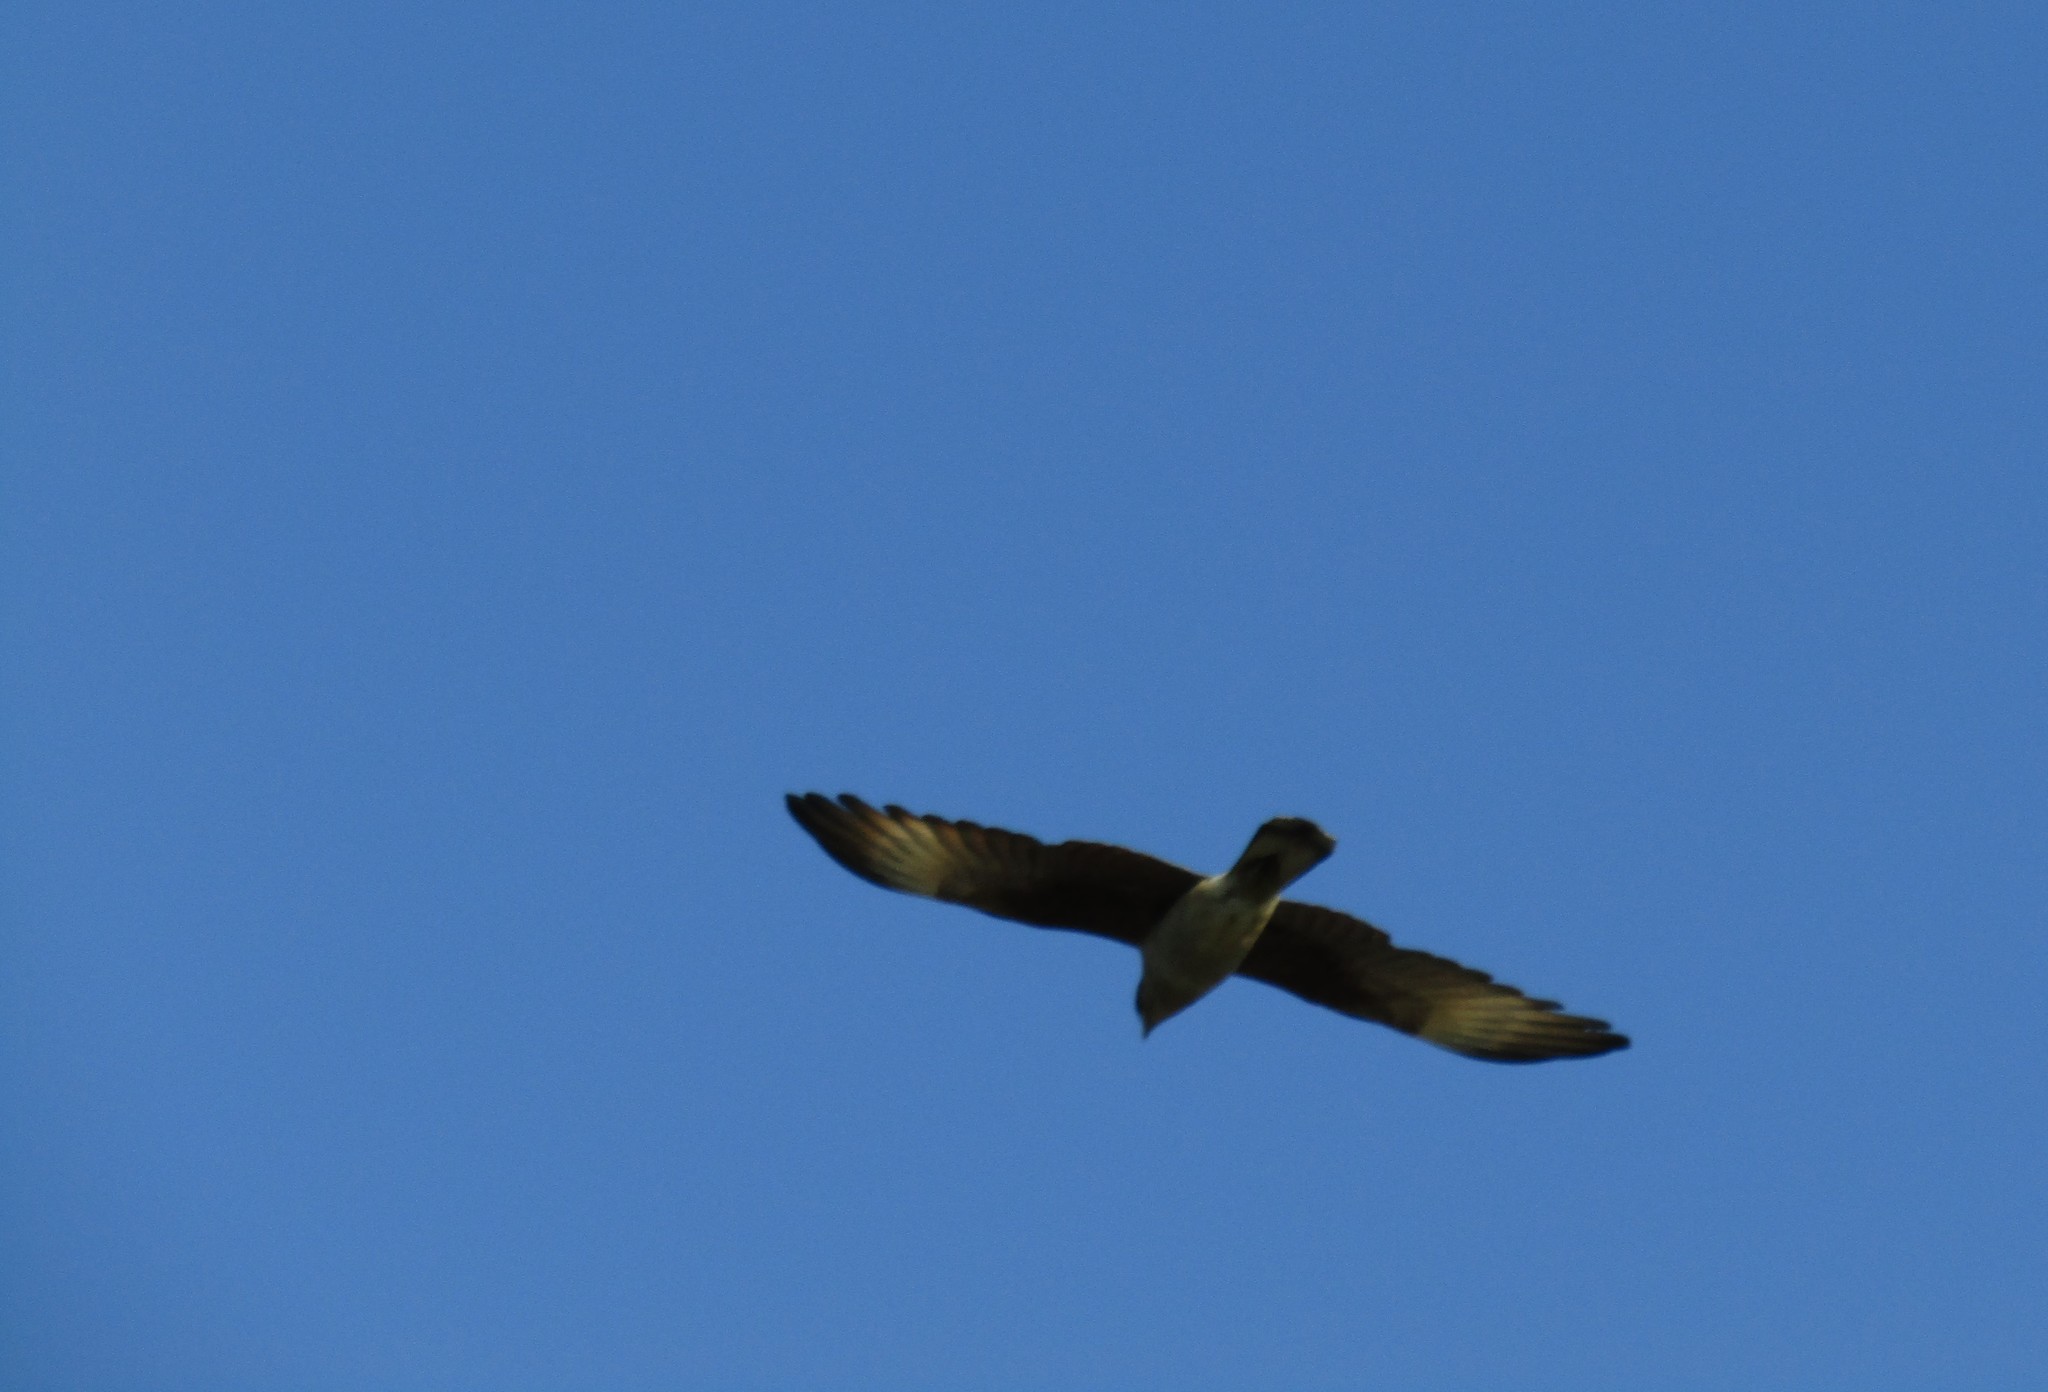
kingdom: Animalia
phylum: Chordata
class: Aves
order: Falconiformes
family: Falconidae
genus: Daptrius
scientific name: Daptrius
